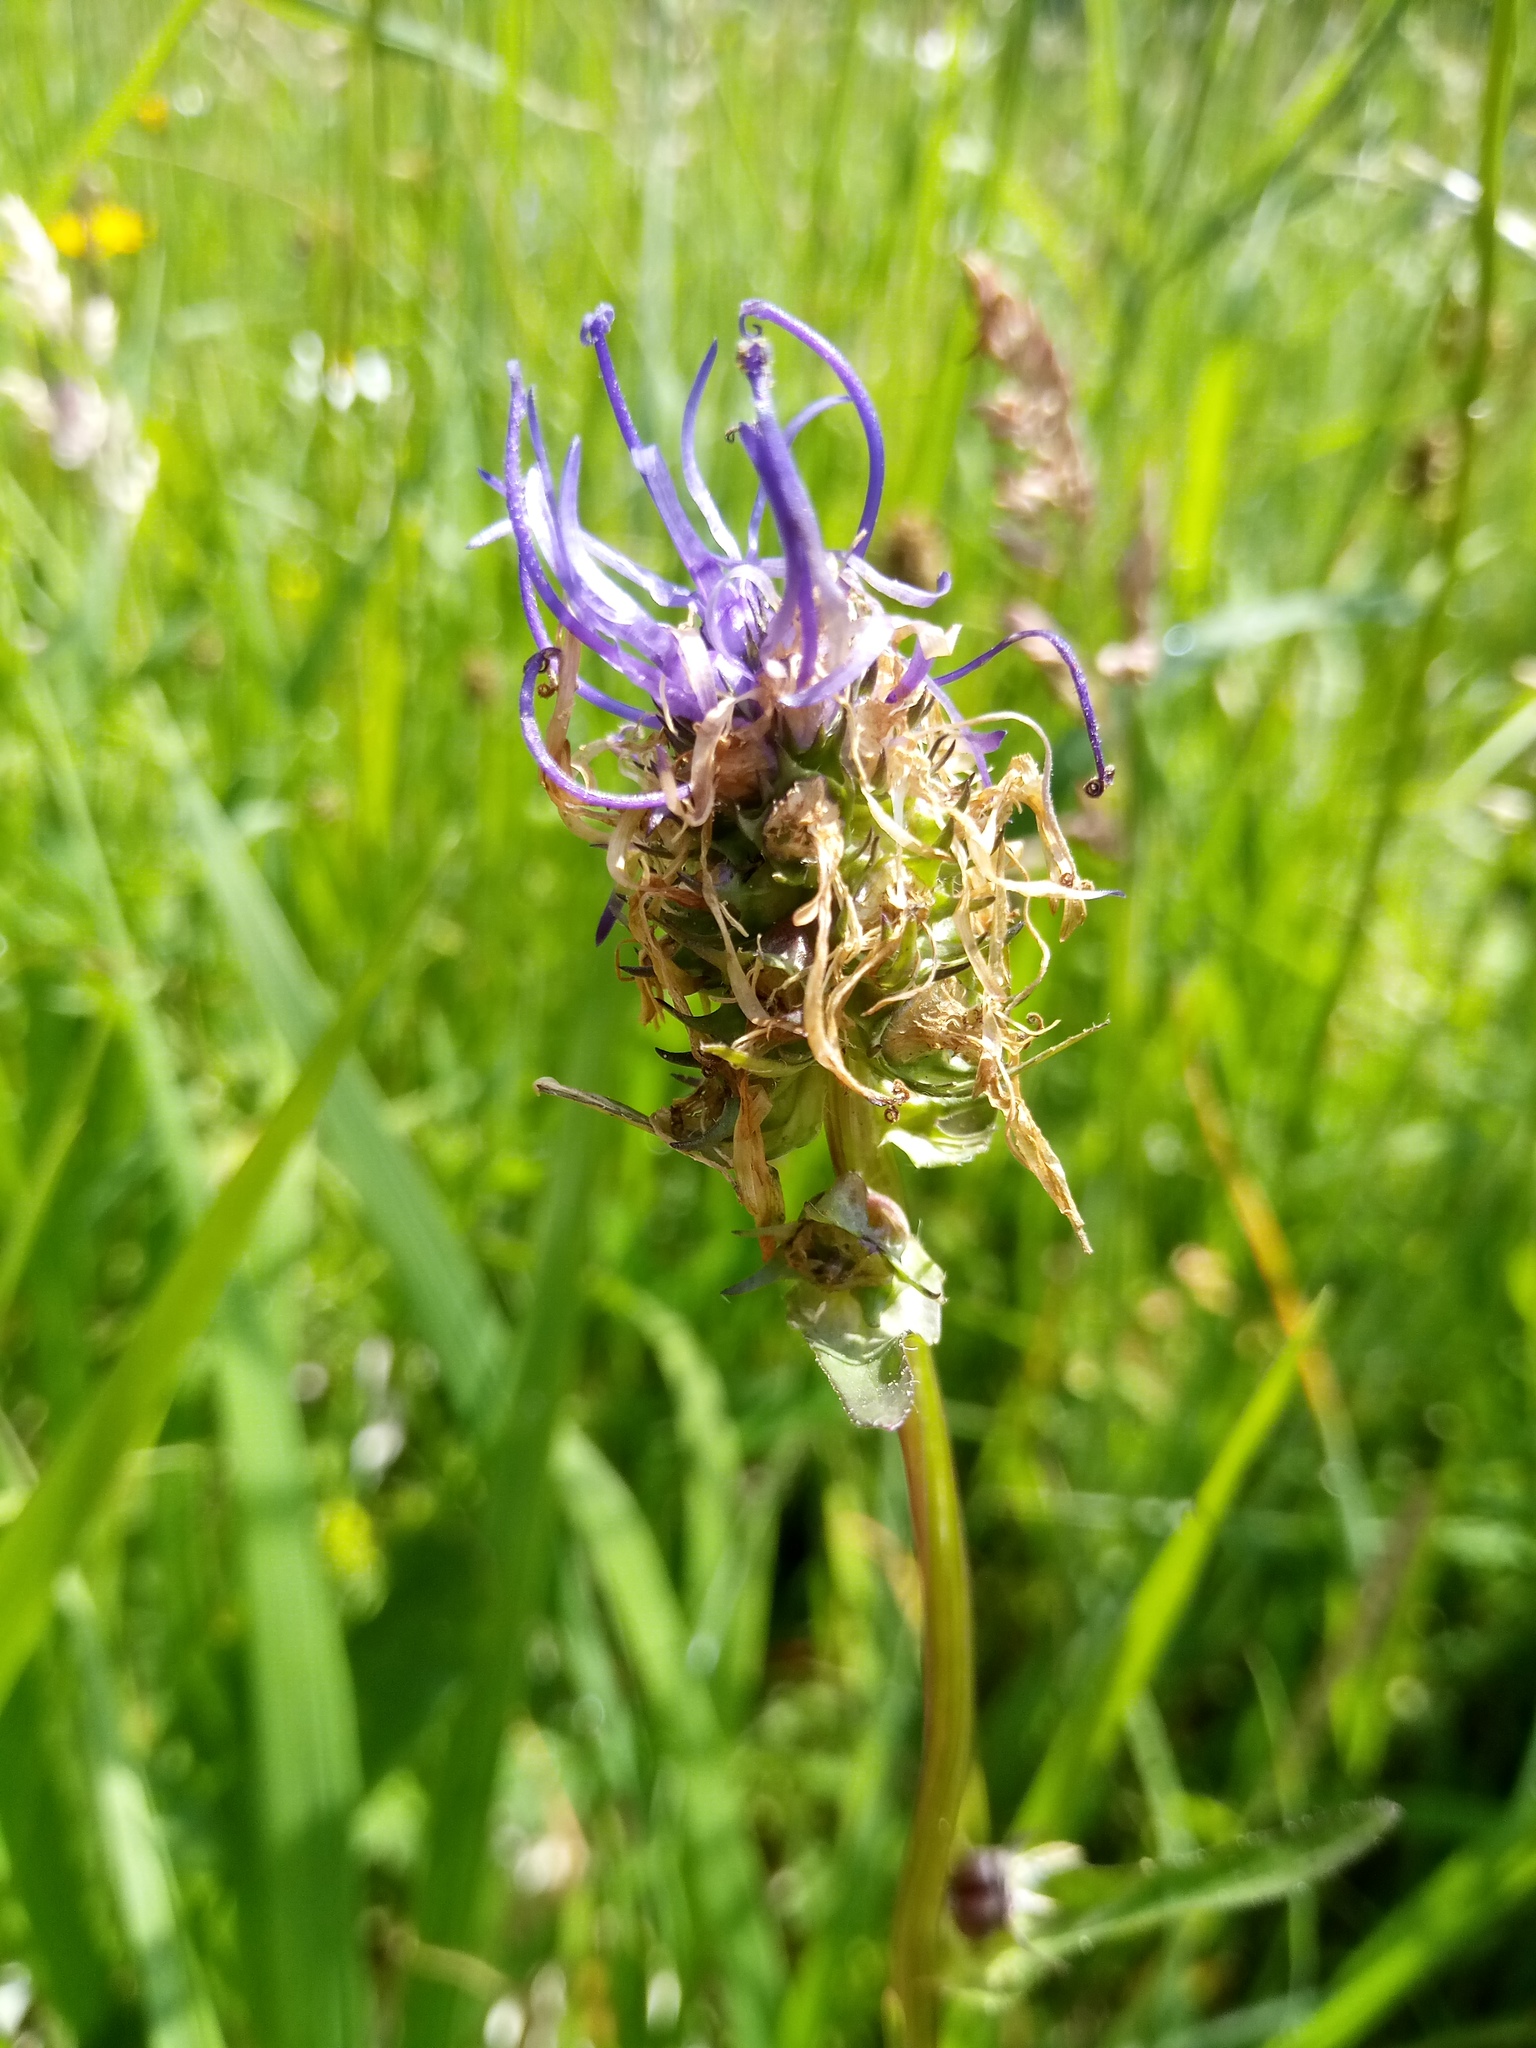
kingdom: Plantae
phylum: Tracheophyta
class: Magnoliopsida
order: Asterales
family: Campanulaceae
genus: Phyteuma
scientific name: Phyteuma orbiculare
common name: Round-headed rampion
